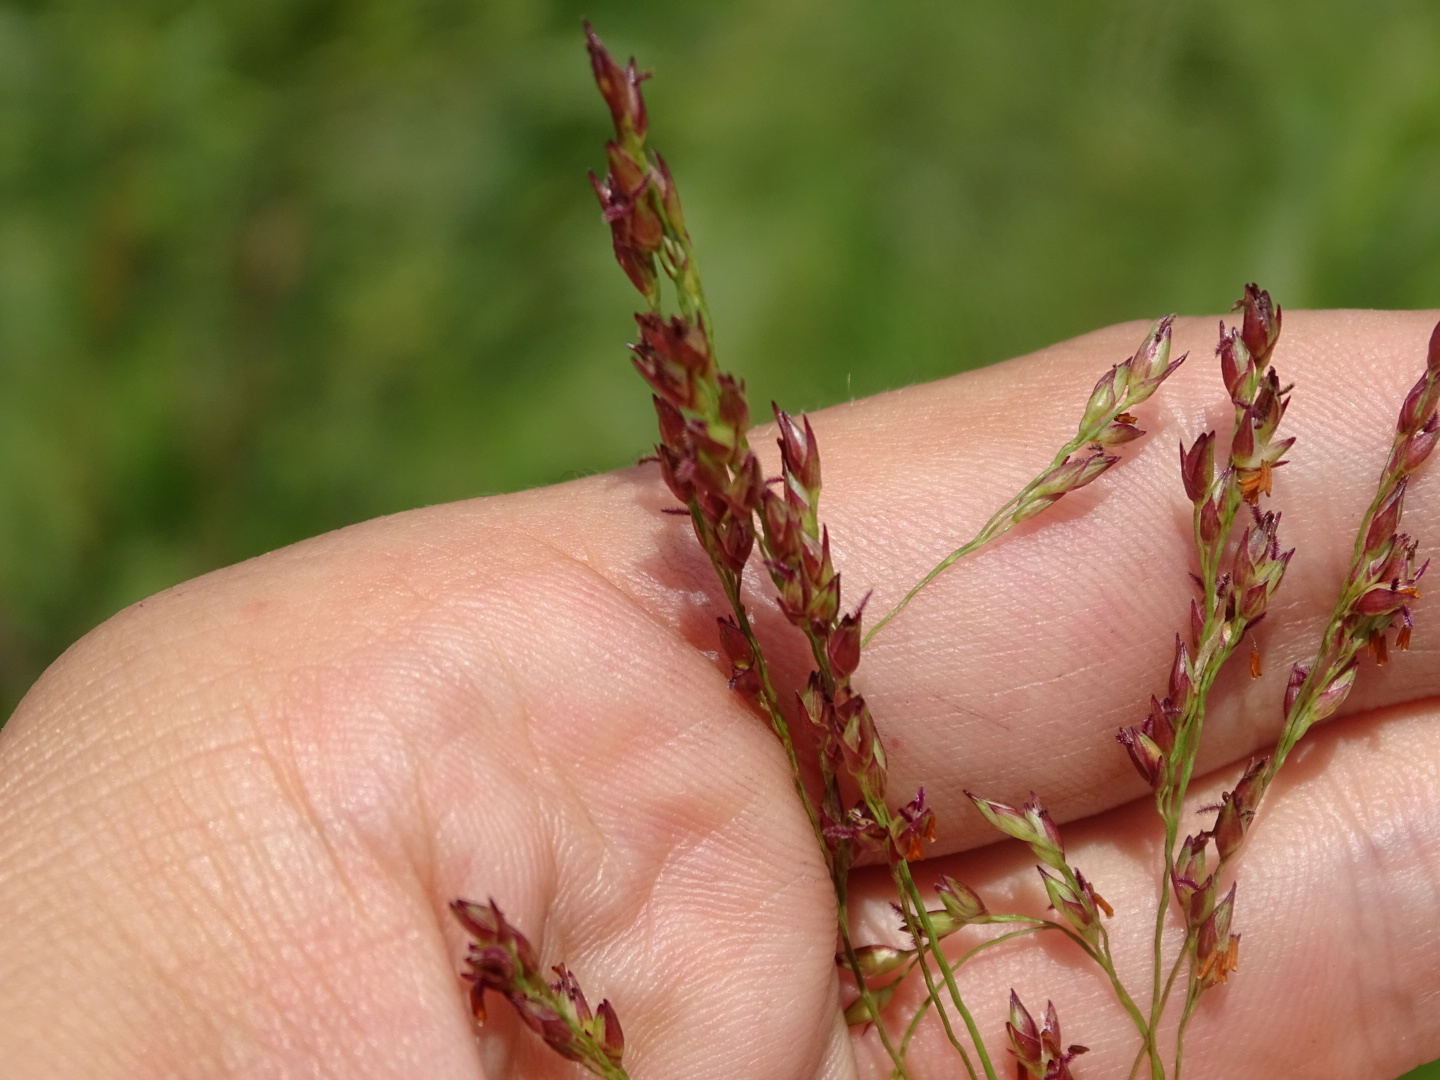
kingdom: Plantae
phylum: Tracheophyta
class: Liliopsida
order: Poales
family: Poaceae
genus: Panicum
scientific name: Panicum virgatum
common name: Switchgrass
